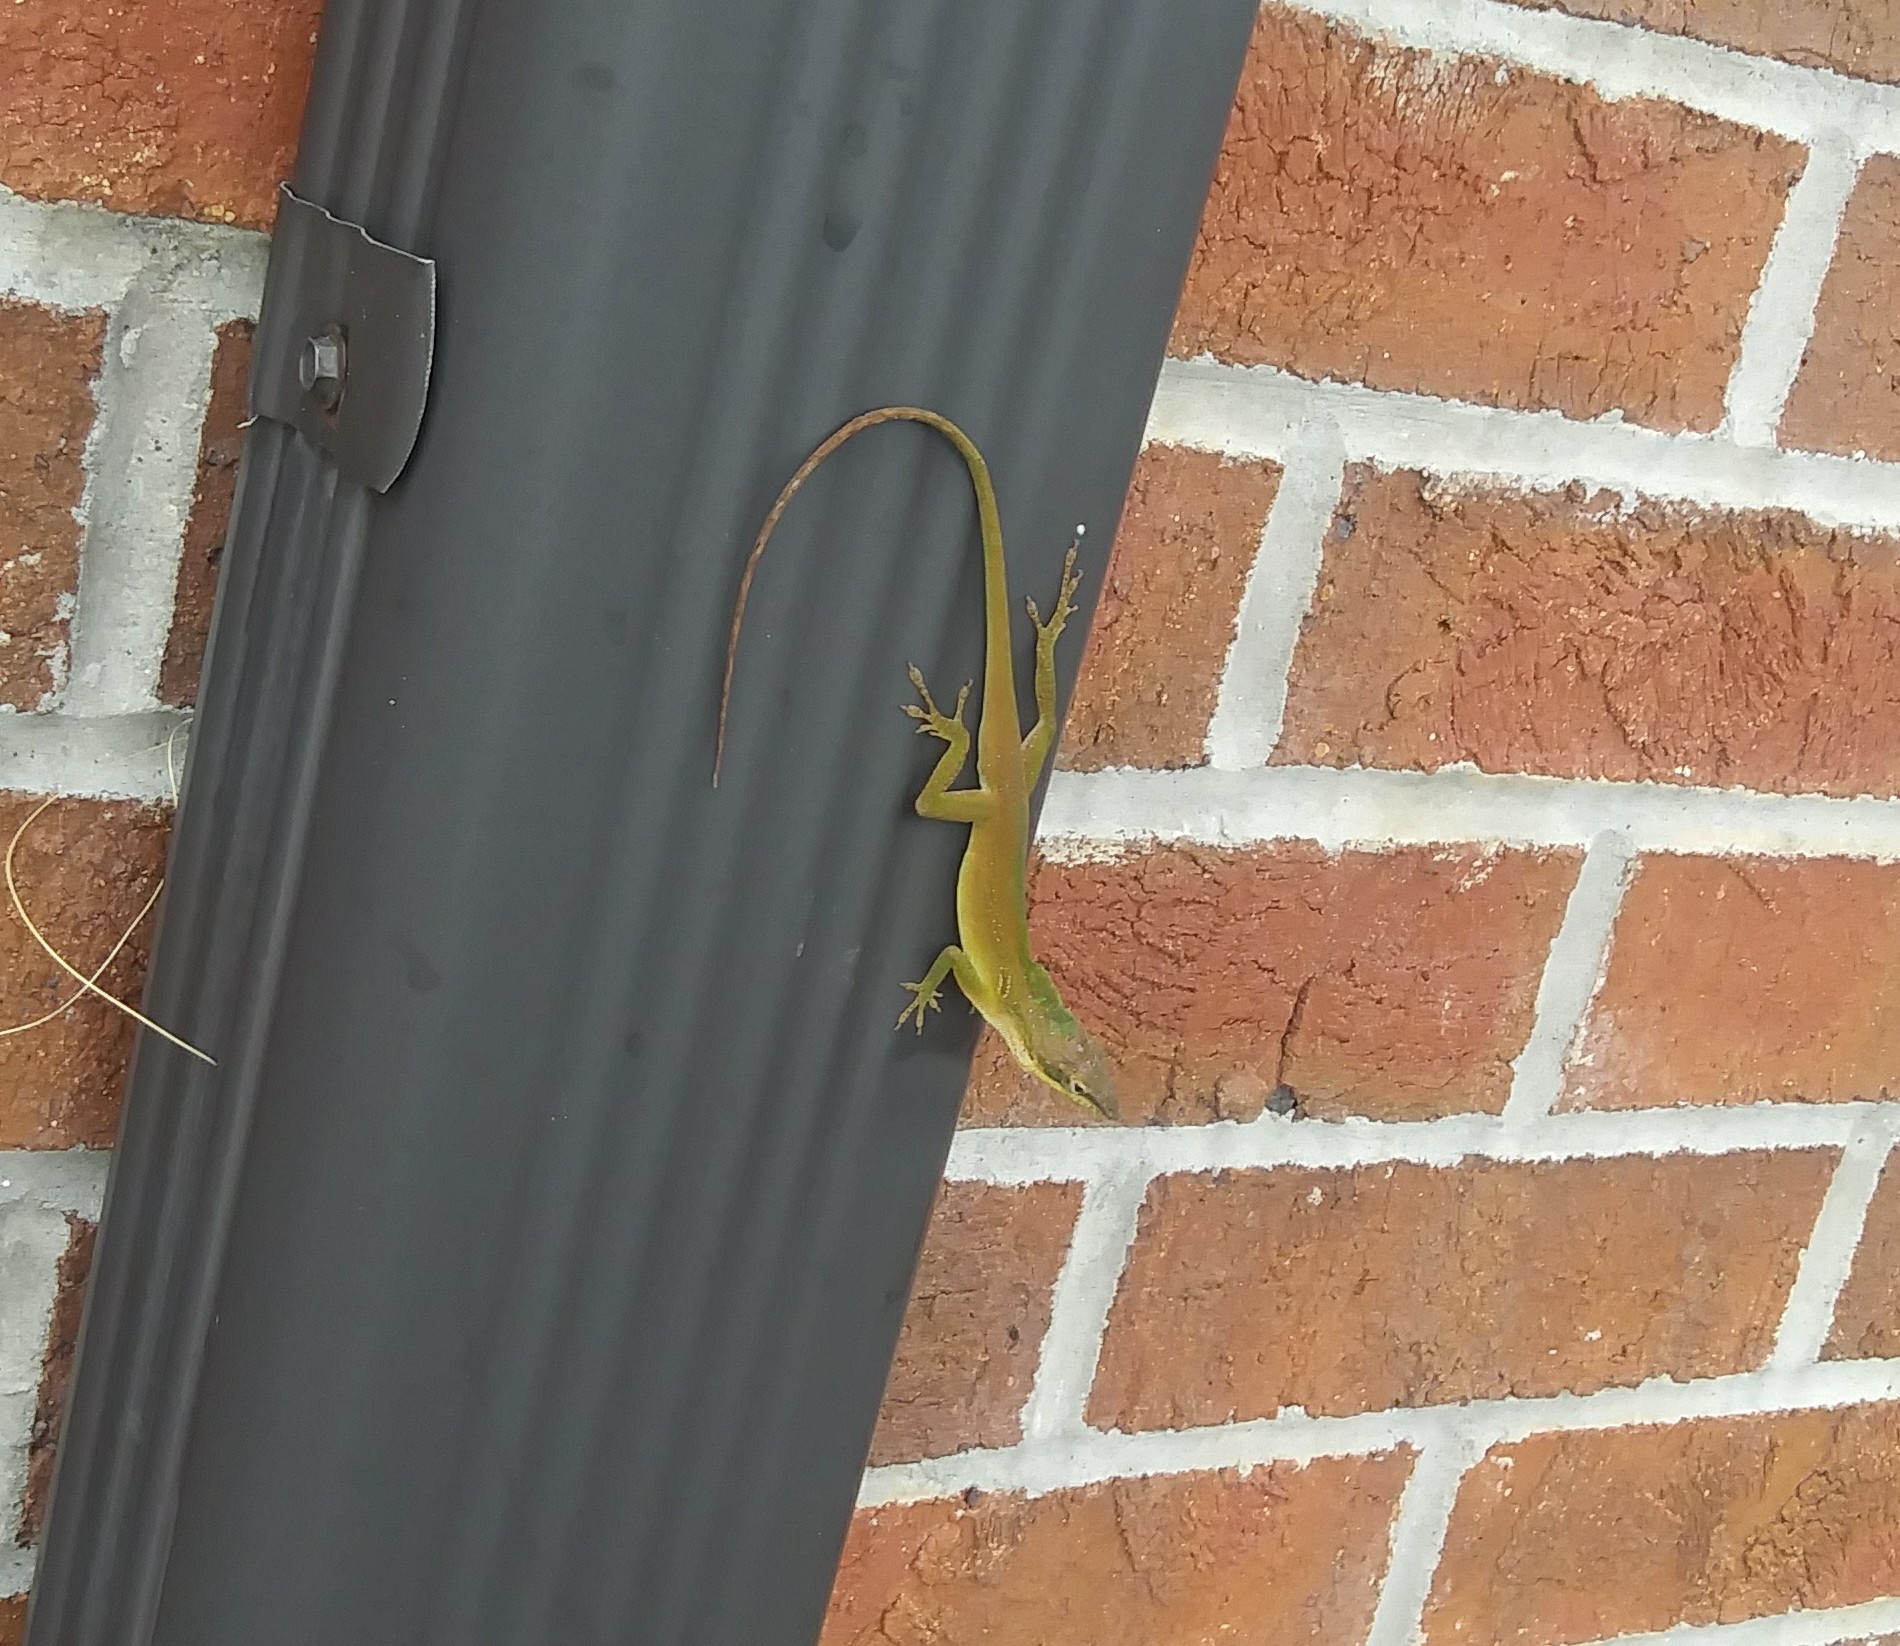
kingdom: Animalia
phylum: Chordata
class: Squamata
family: Dactyloidae
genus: Anolis
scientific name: Anolis carolinensis
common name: Green anole
